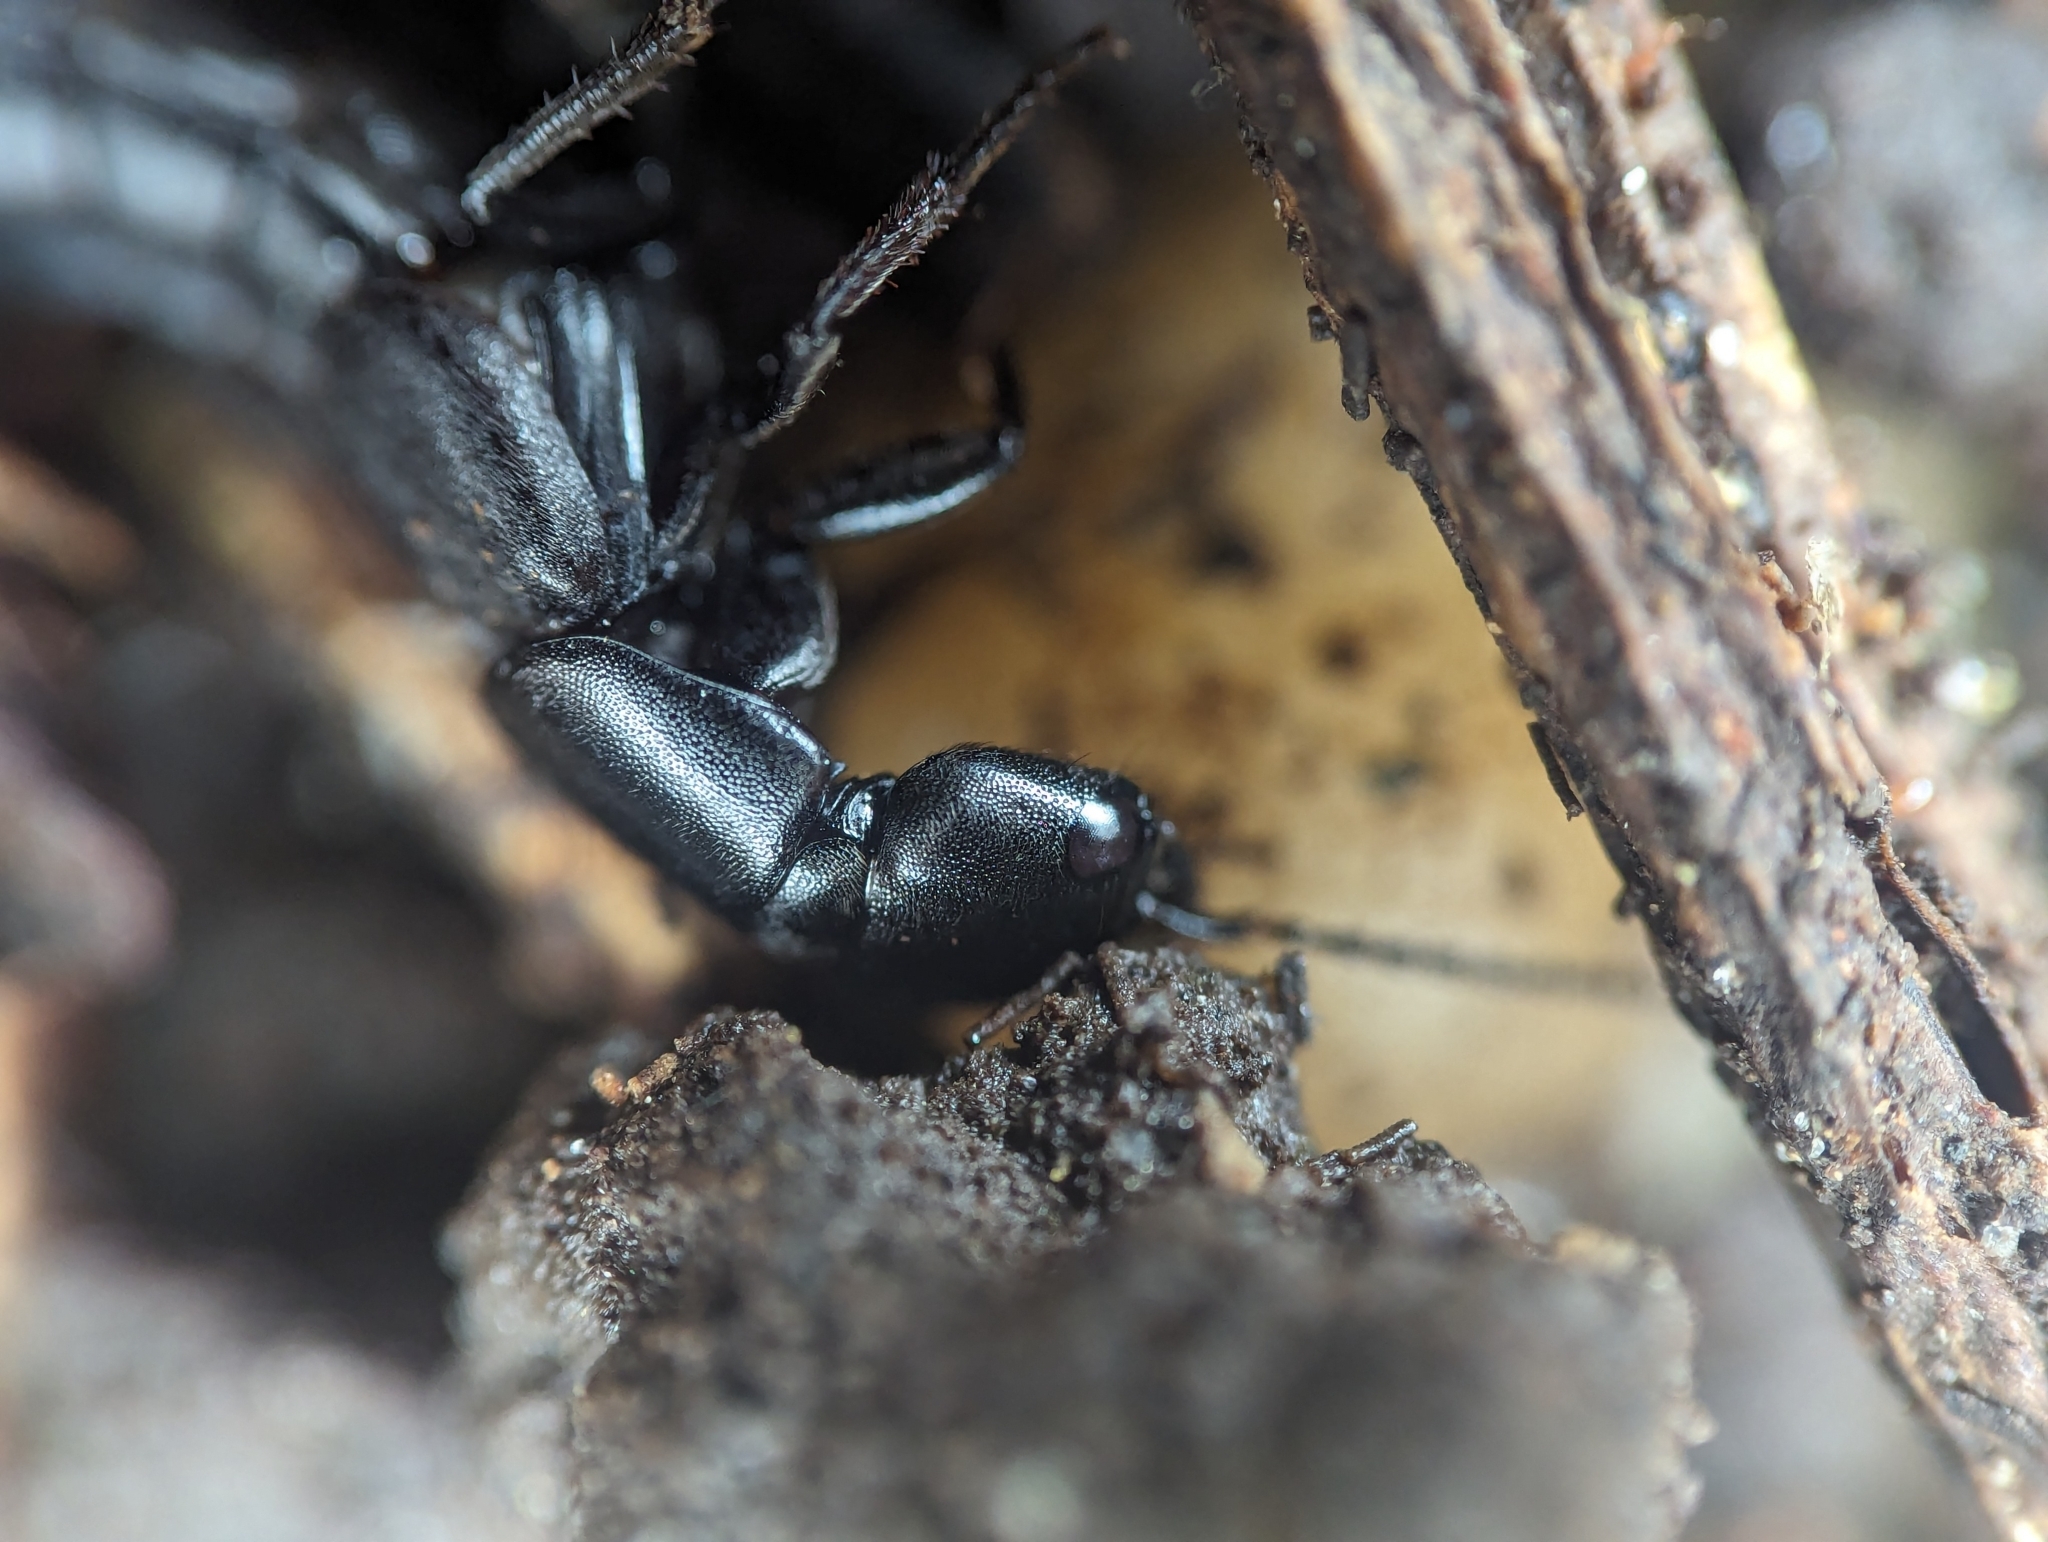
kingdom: Animalia
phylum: Arthropoda
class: Insecta
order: Coleoptera
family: Staphylinidae
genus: Ocypus
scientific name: Ocypus nitens
